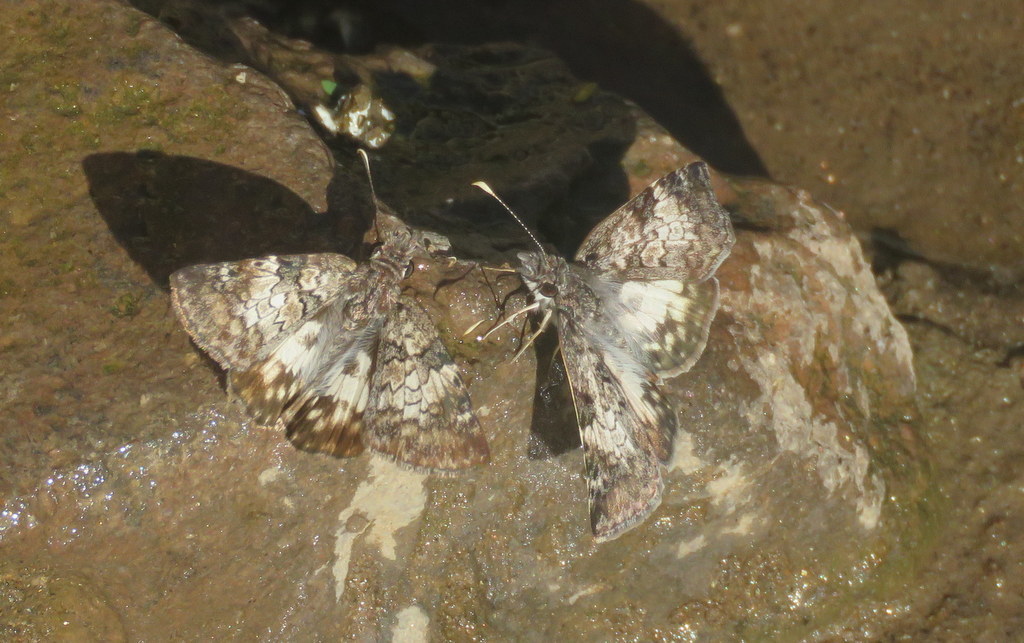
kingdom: Animalia
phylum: Arthropoda
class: Insecta
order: Lepidoptera
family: Hesperiidae
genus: Chiomara
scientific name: Chiomara asychis
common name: White-patterned skipper
